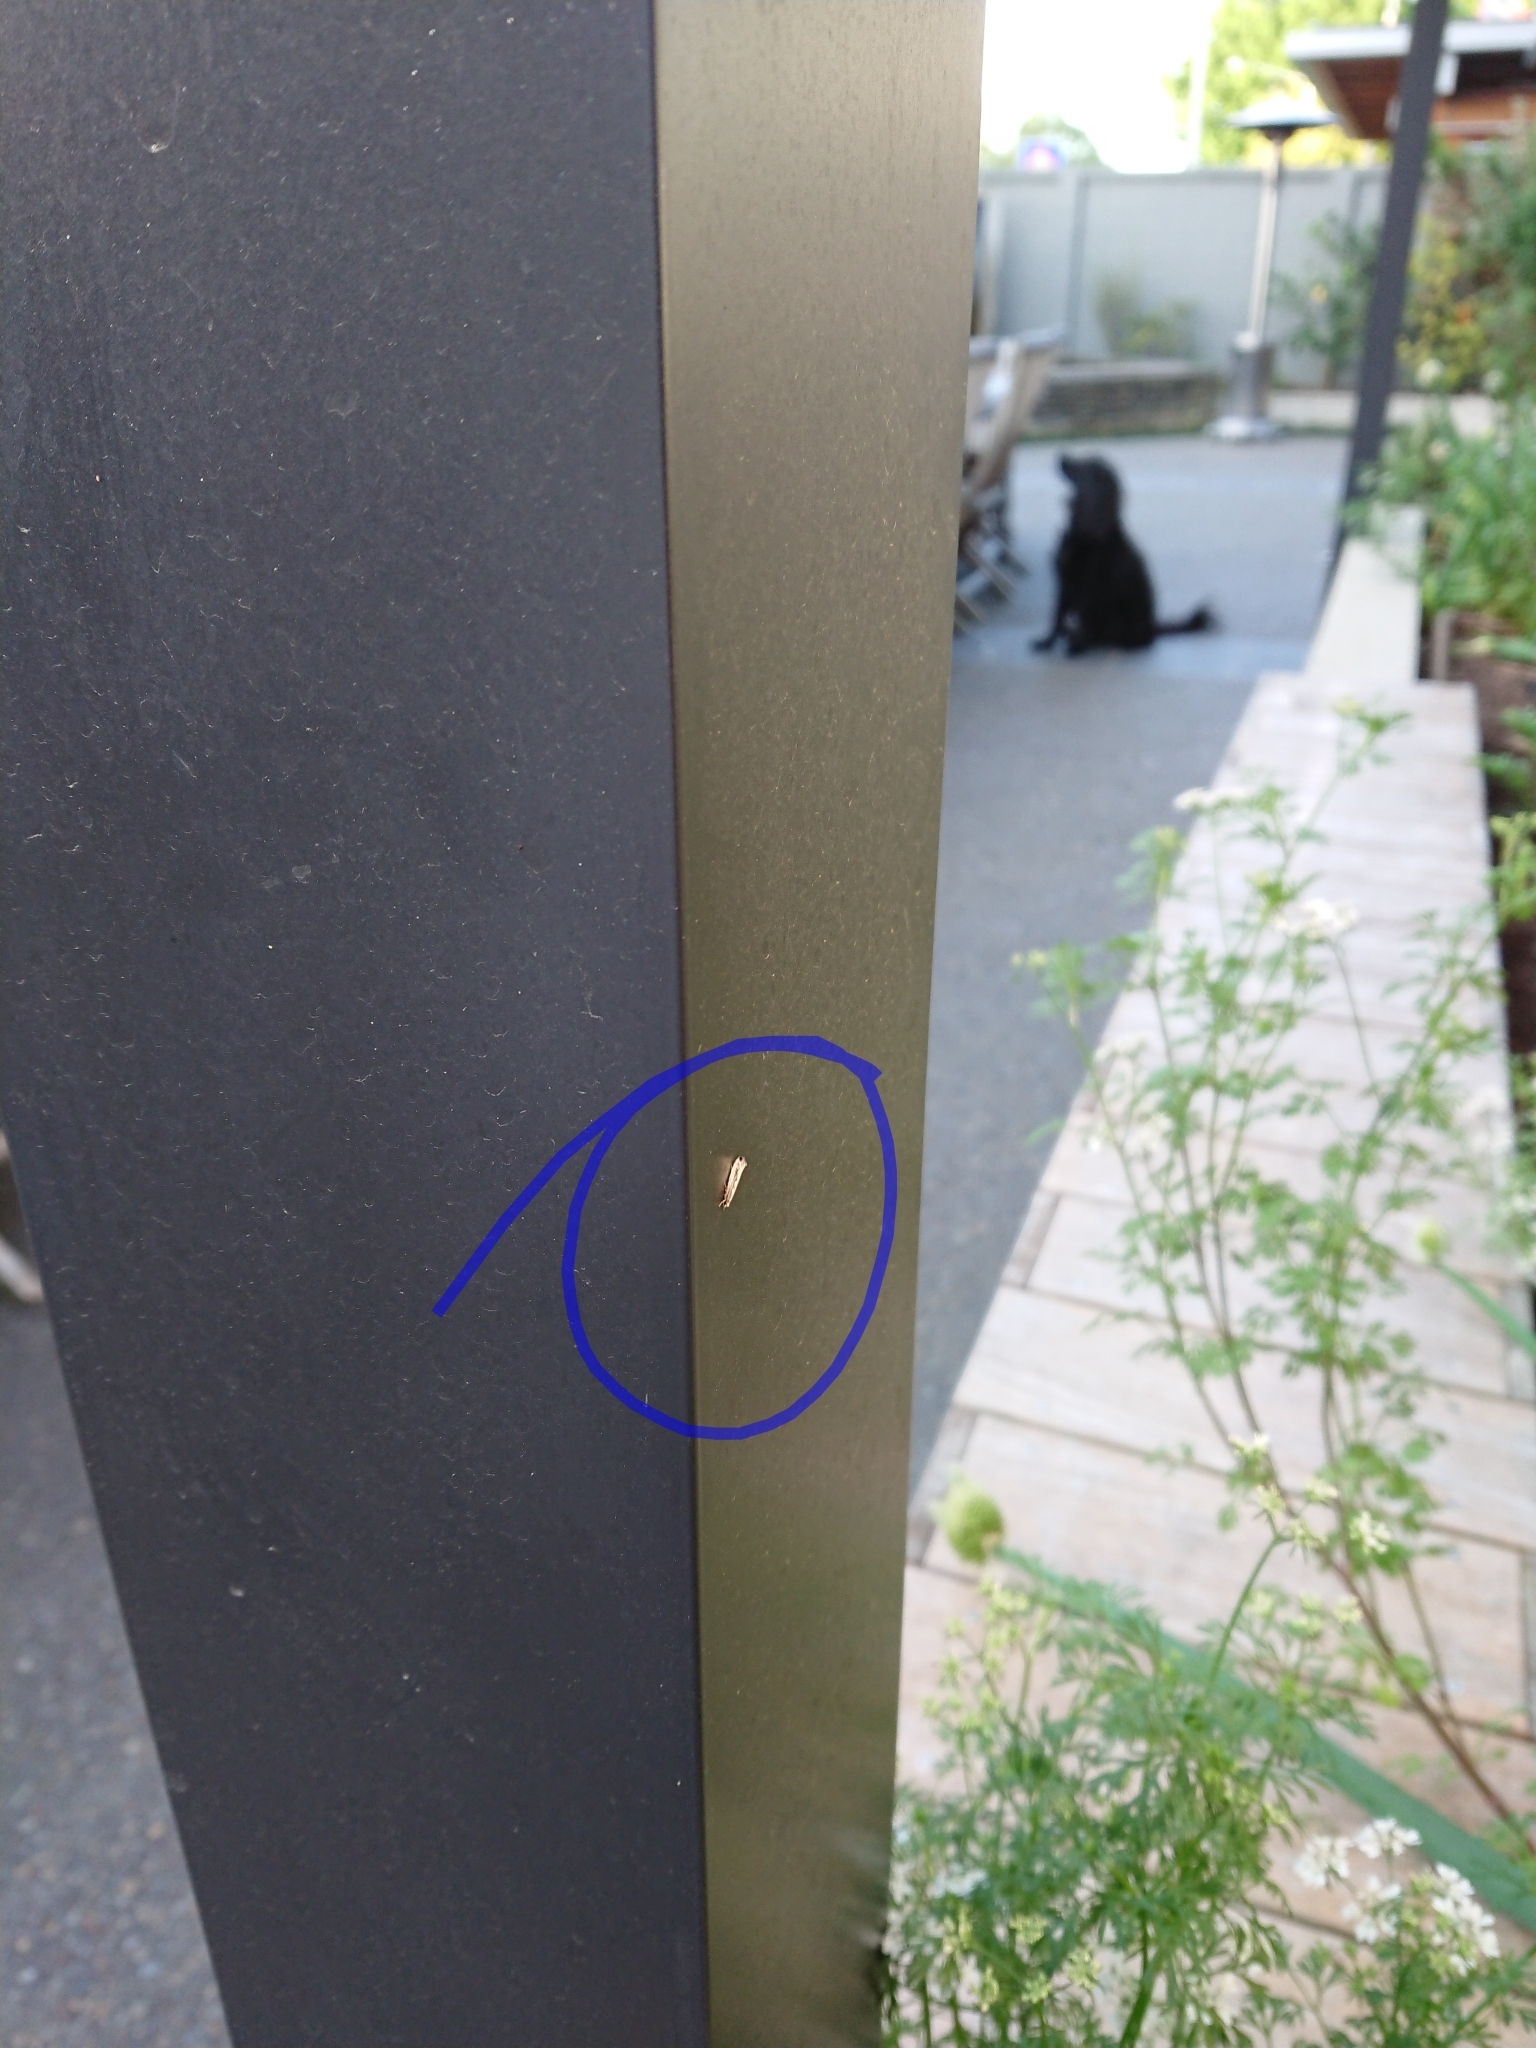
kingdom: Animalia
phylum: Arthropoda
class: Insecta
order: Lepidoptera
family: Tineidae
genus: Erechthias
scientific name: Erechthias fulguritella
